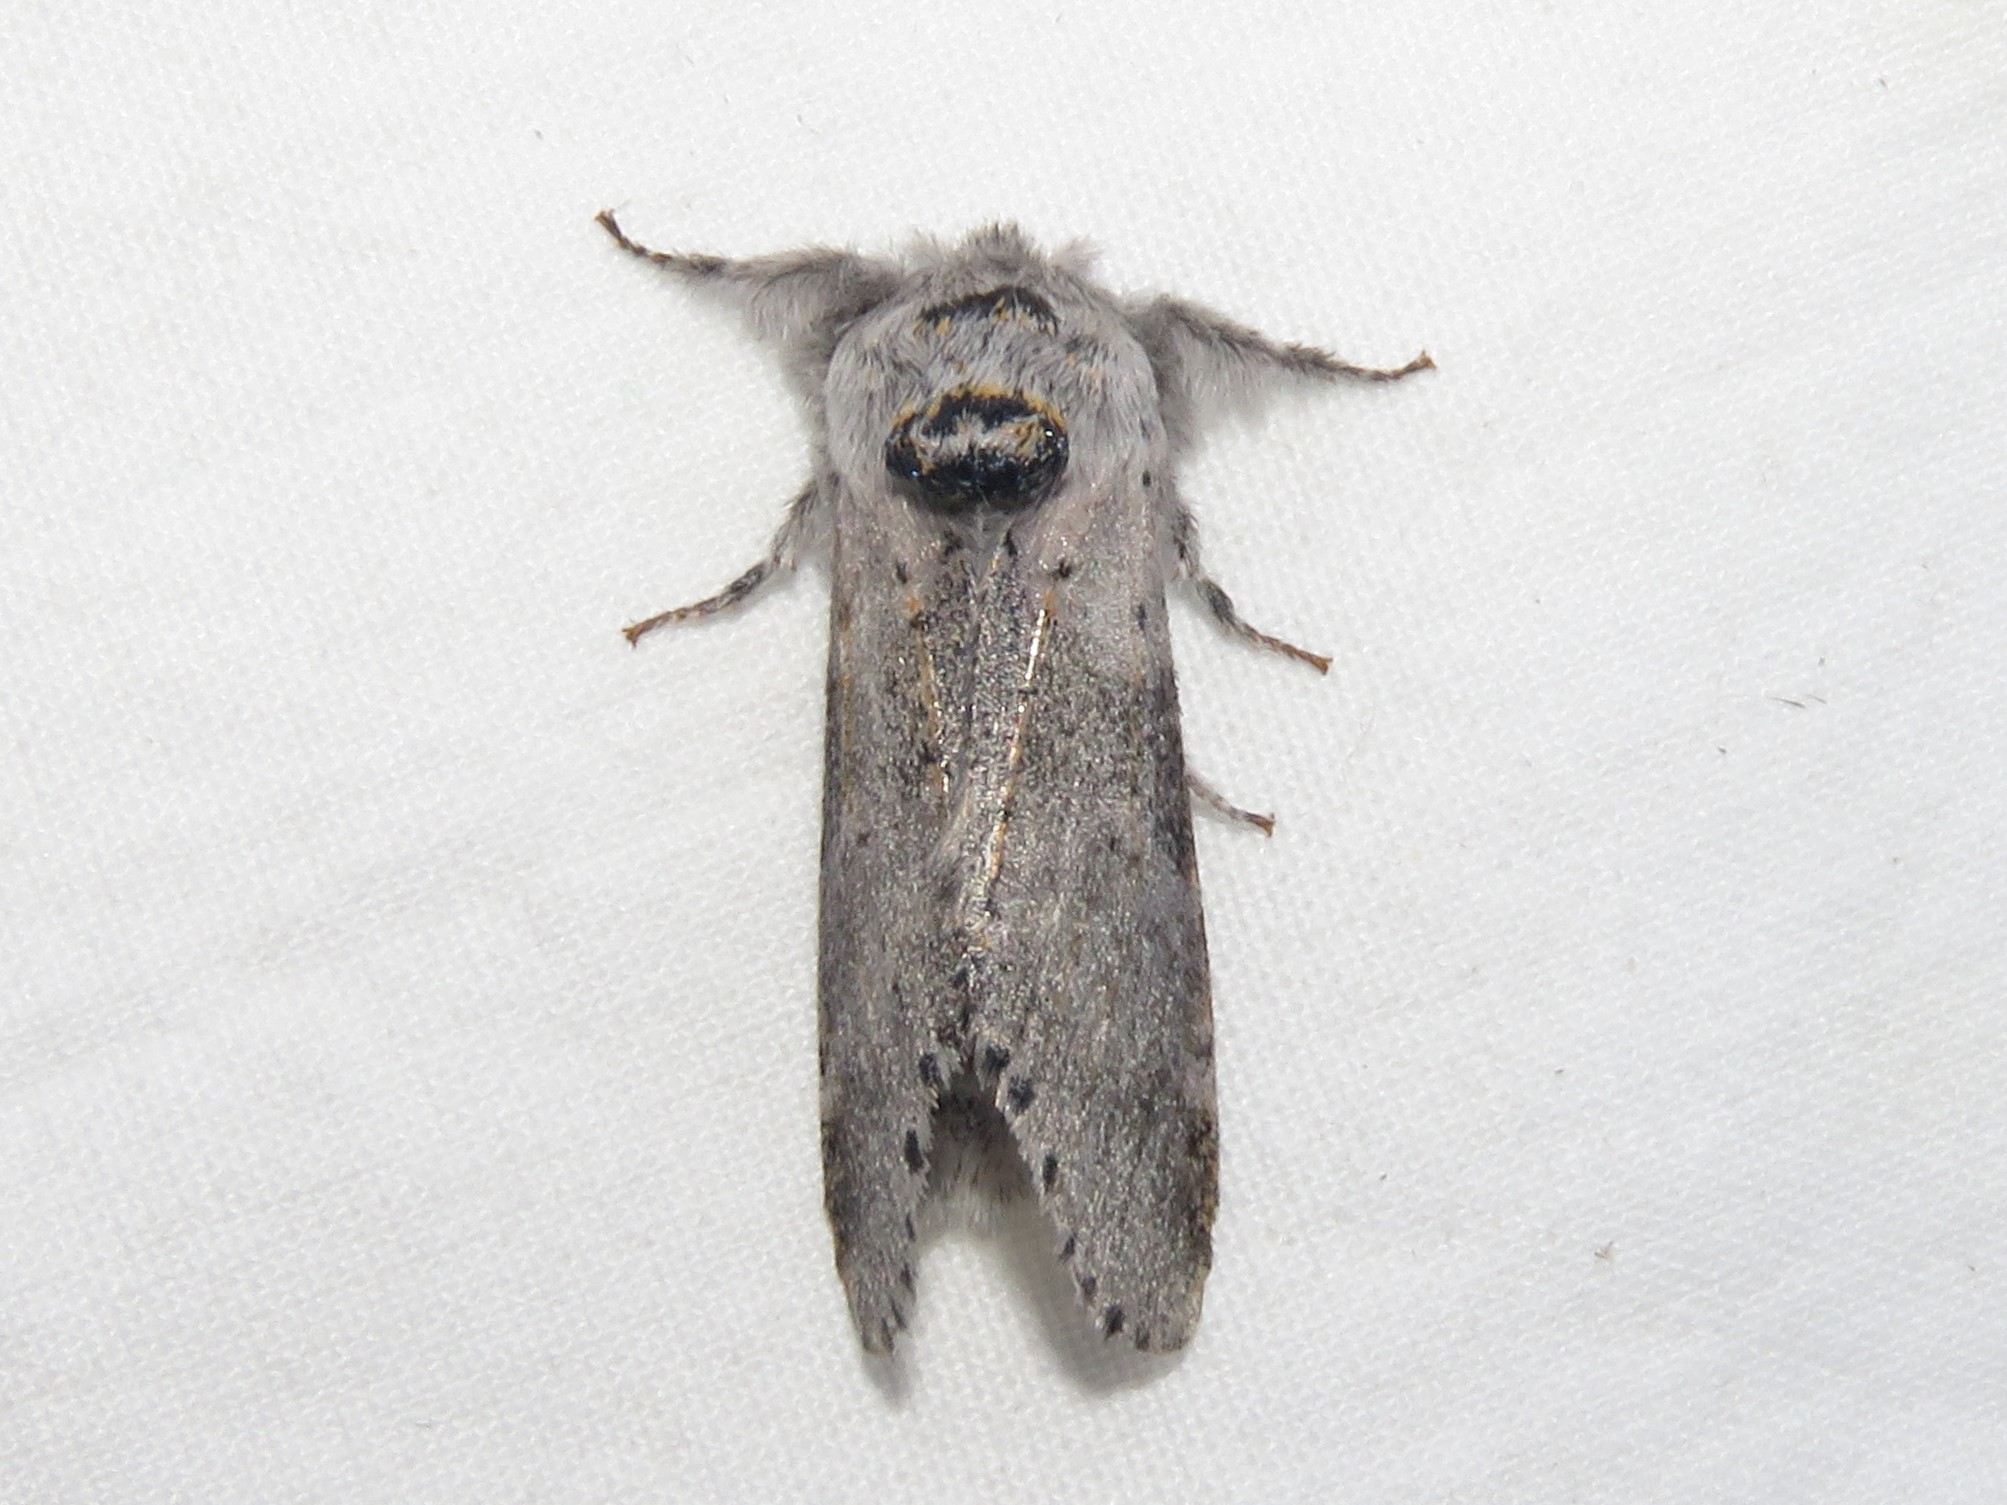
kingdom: Animalia
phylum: Arthropoda
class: Insecta
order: Lepidoptera
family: Notodontidae
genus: Furcula
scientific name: Furcula cinerea
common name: Gray furcula
